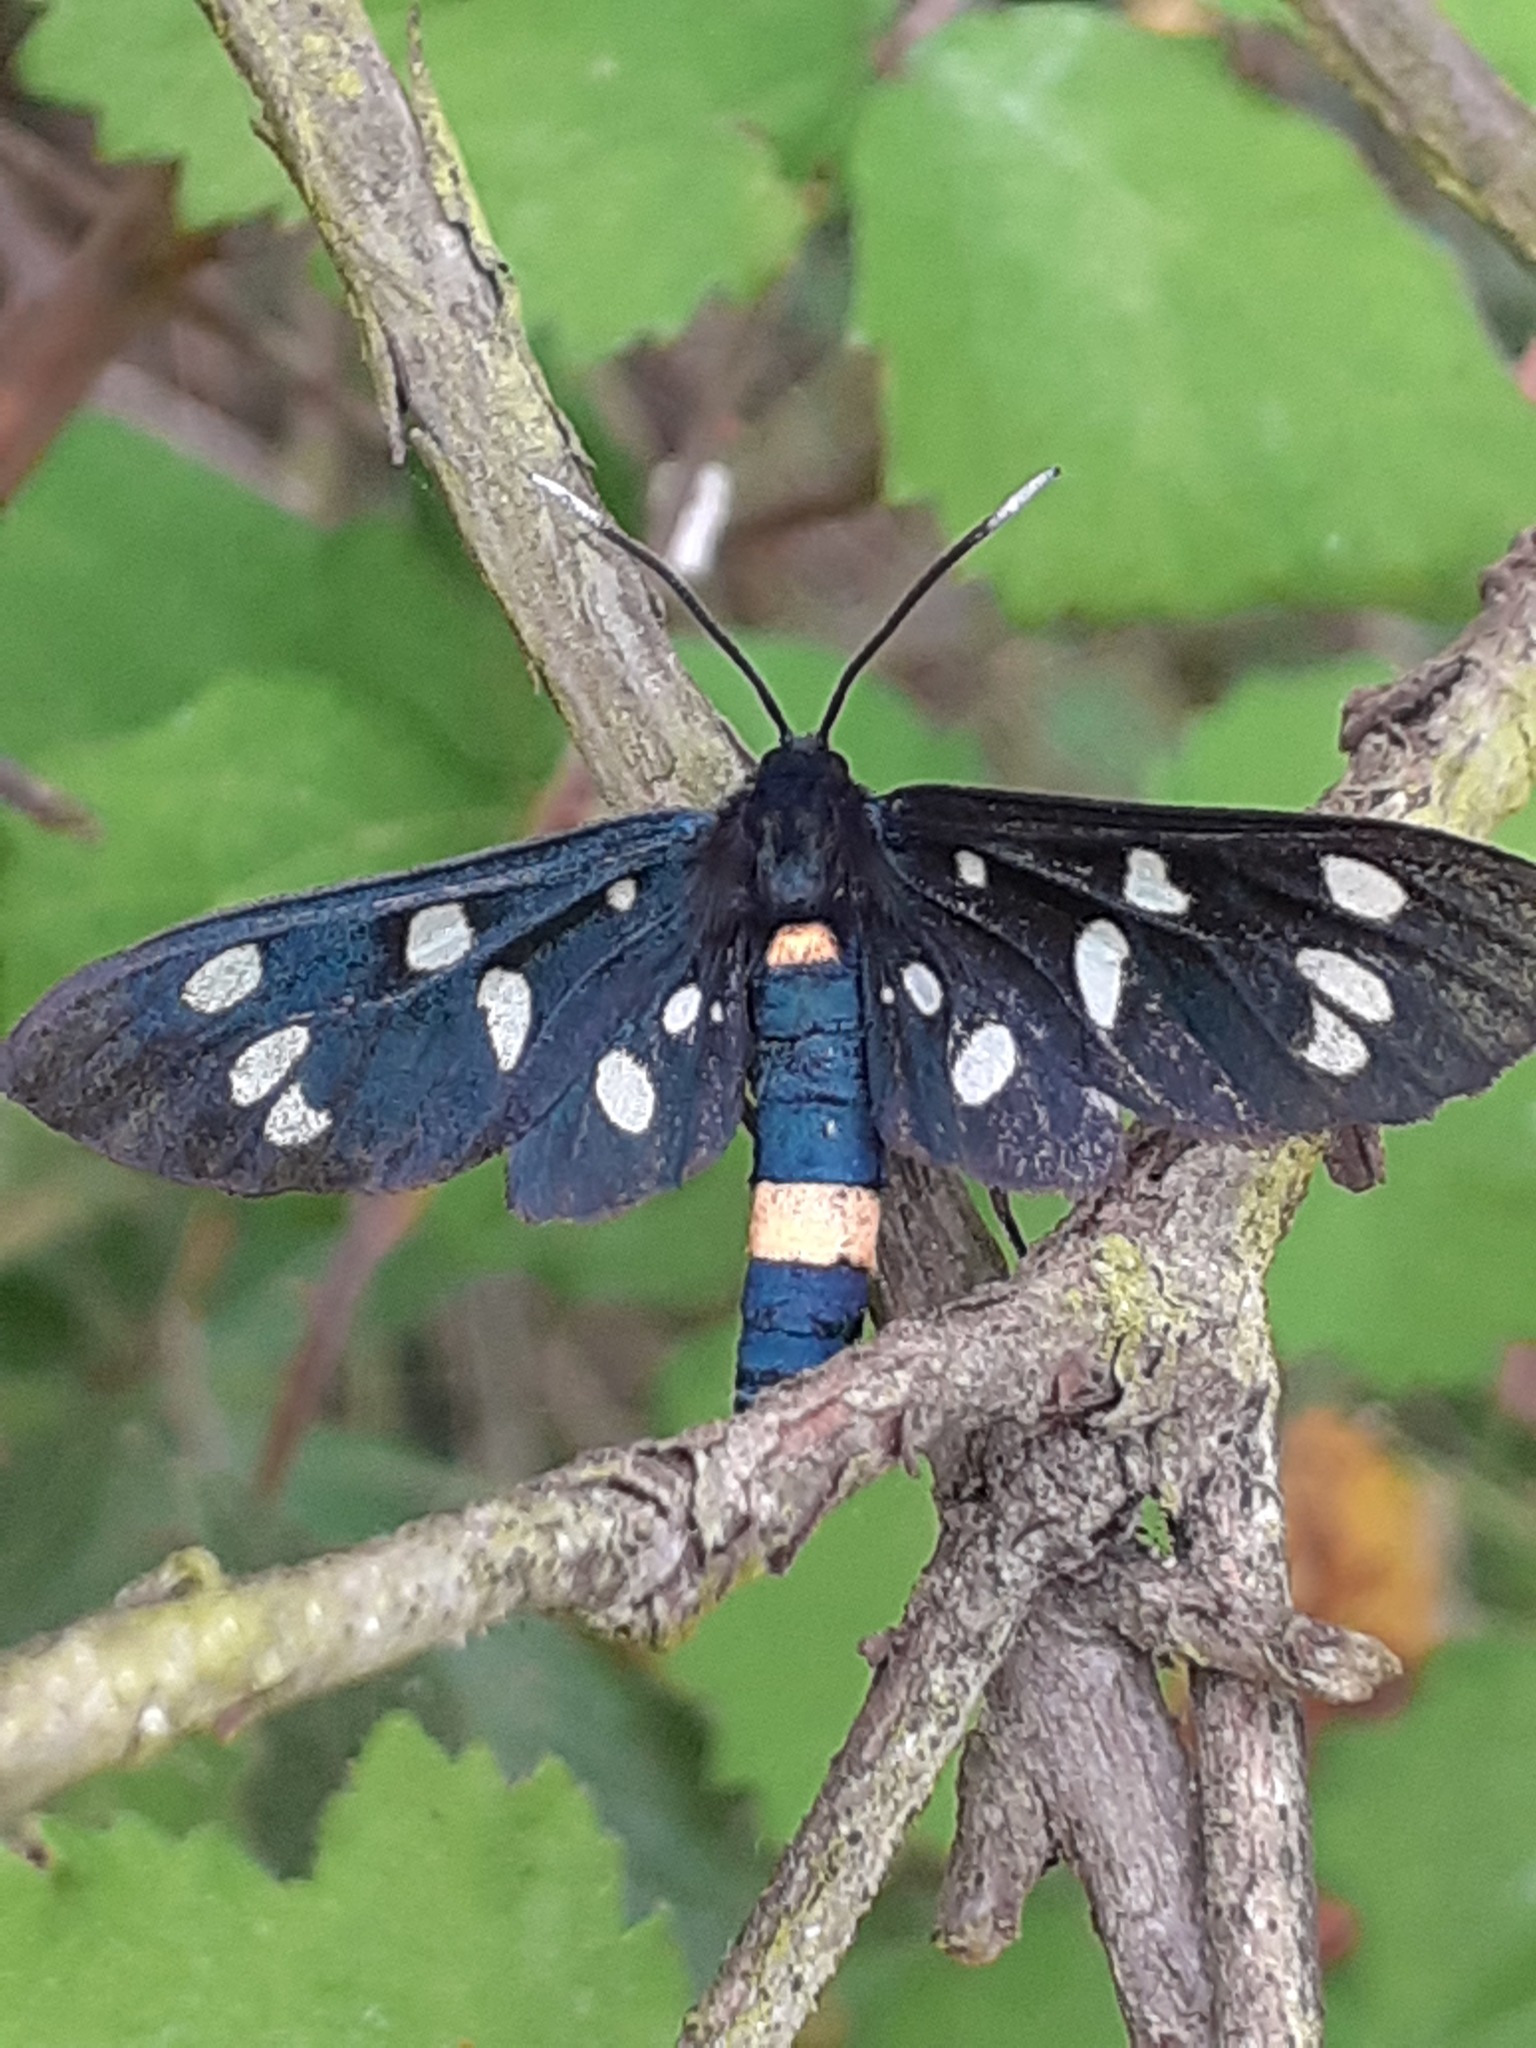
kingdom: Animalia
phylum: Arthropoda
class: Insecta
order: Lepidoptera
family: Erebidae
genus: Amata
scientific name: Amata phegea
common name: Nine-spotted
